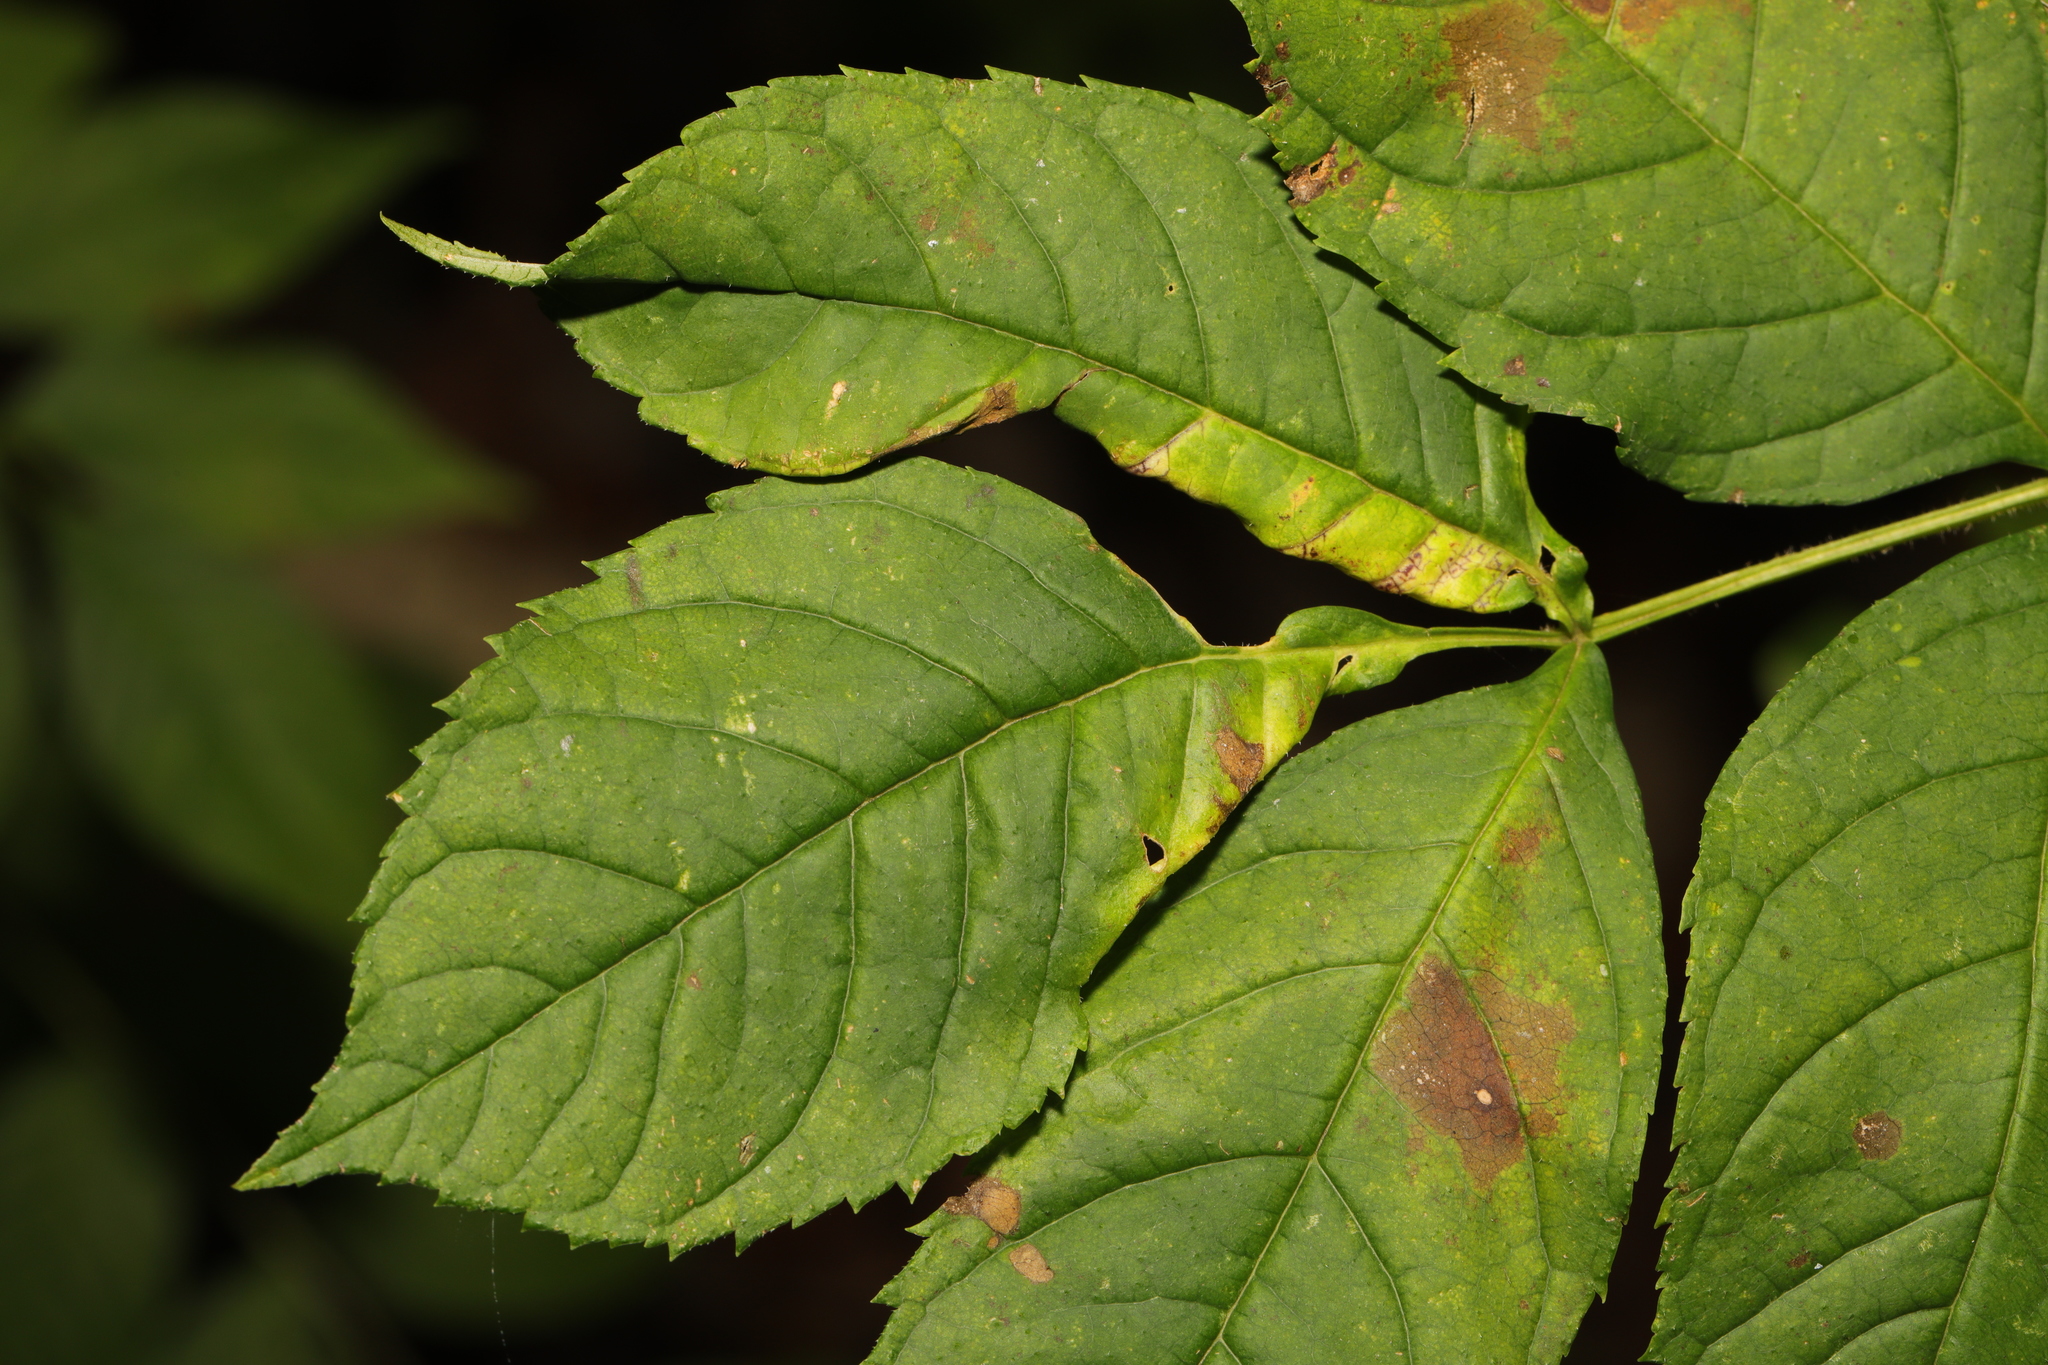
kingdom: Animalia
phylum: Arthropoda
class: Insecta
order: Hemiptera
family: Liviidae
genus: Psyllopsis
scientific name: Psyllopsis fraxini
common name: Jumping plant louse
